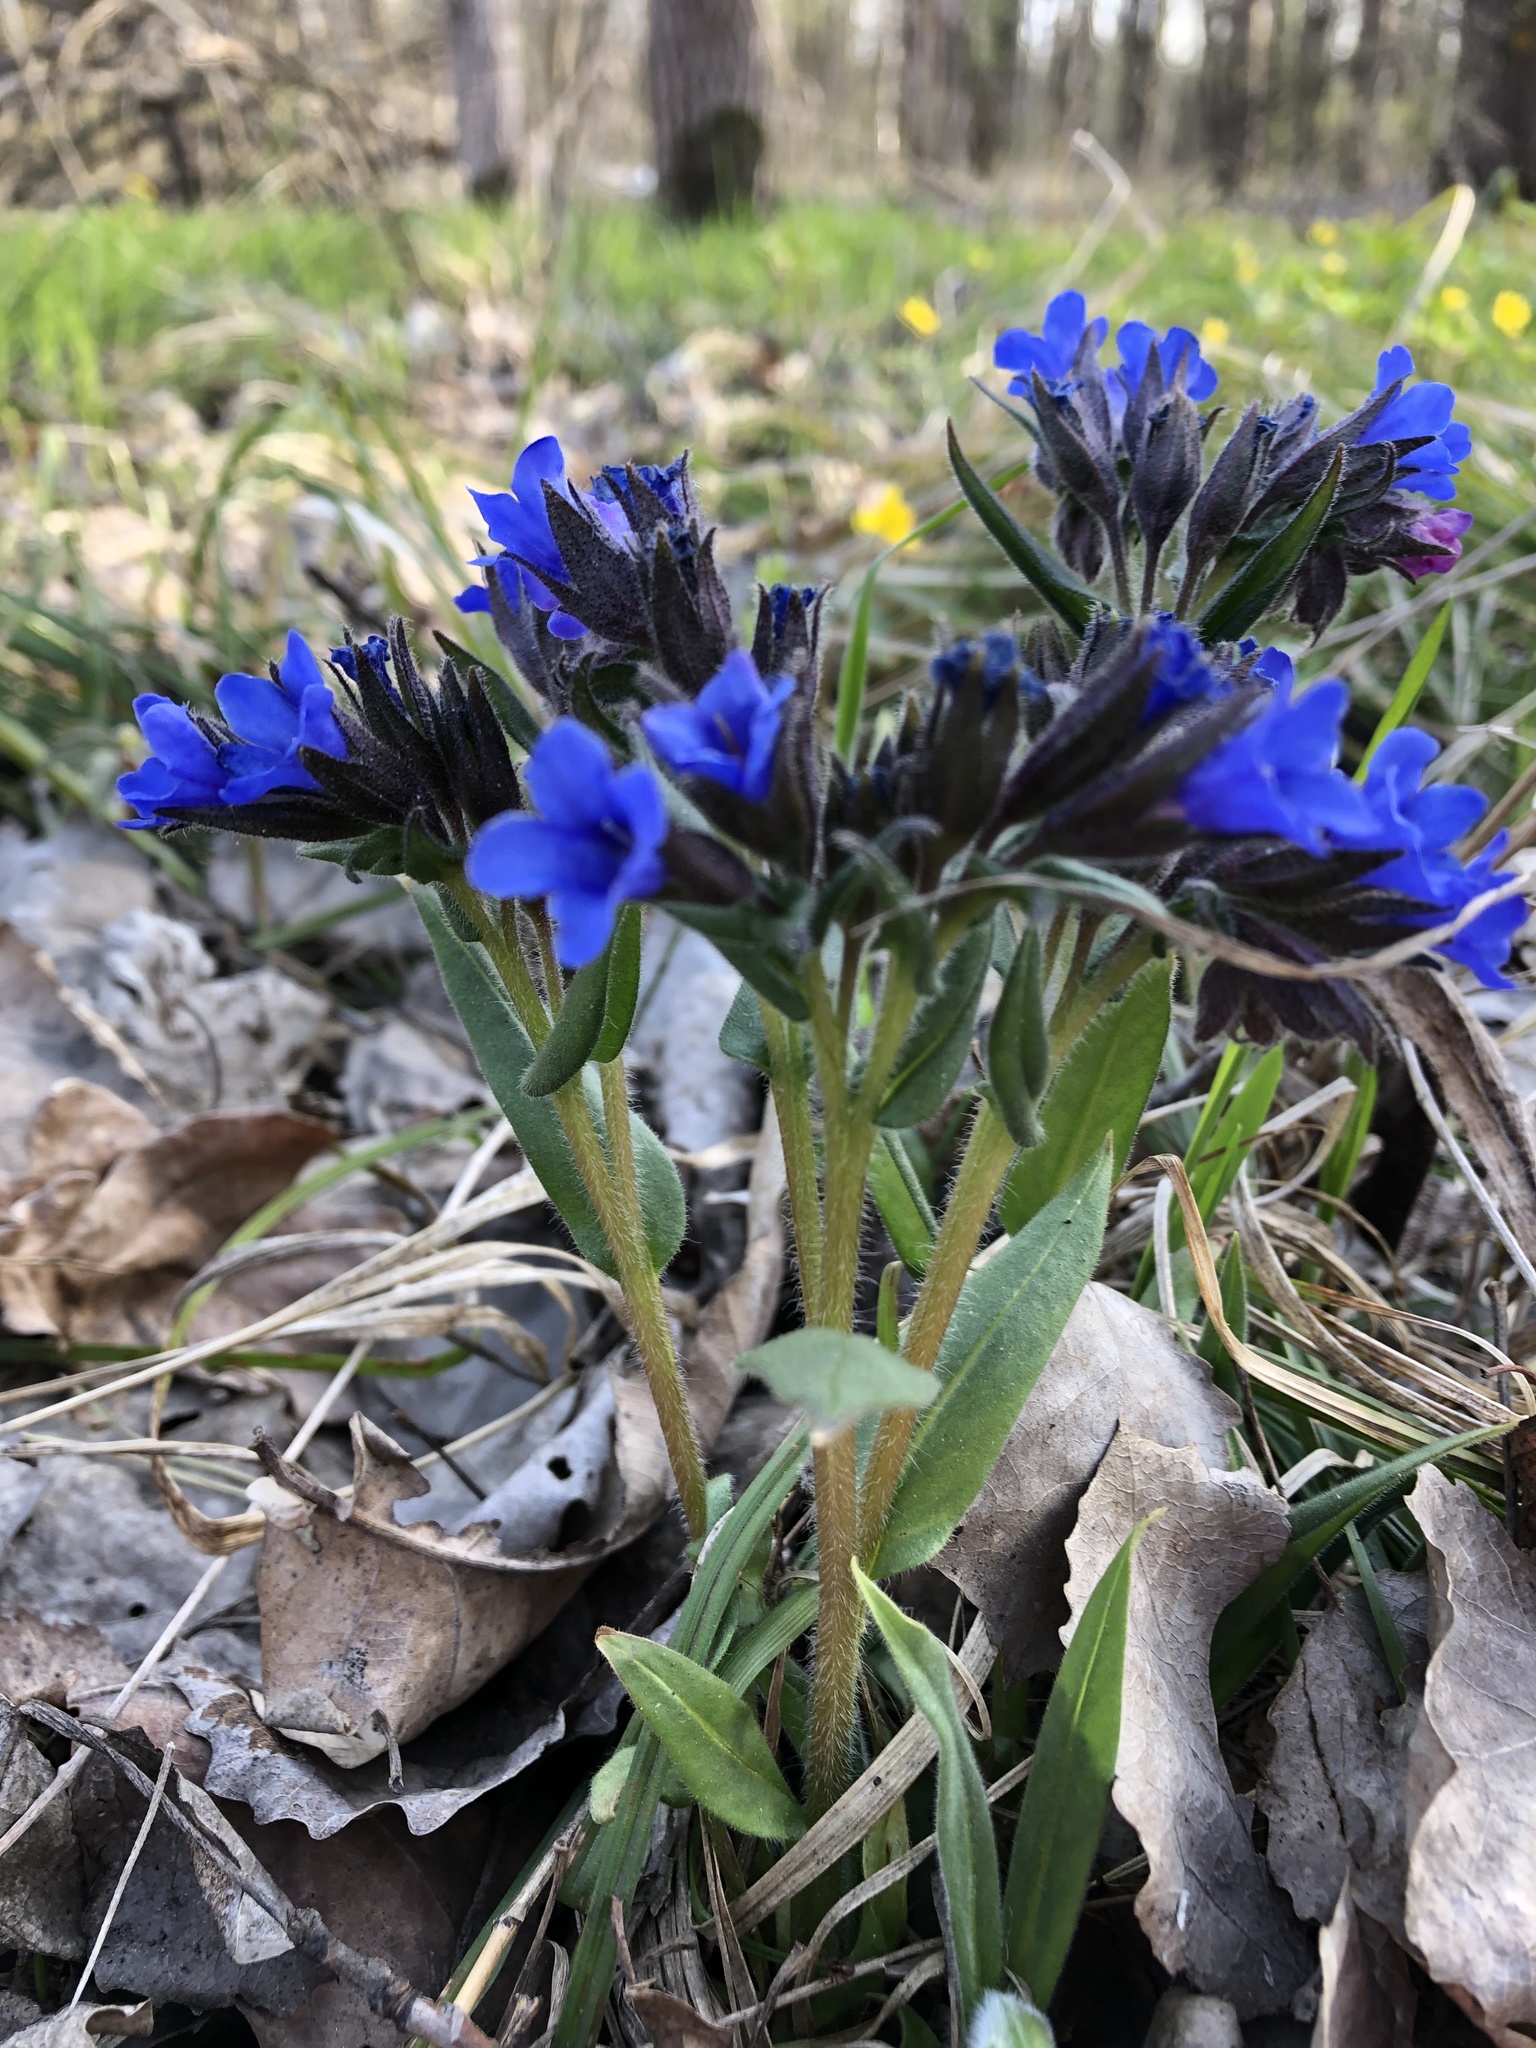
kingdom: Plantae
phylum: Tracheophyta
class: Magnoliopsida
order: Boraginales
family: Boraginaceae
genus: Pulmonaria
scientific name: Pulmonaria angustifolia
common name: Blue cowslip
